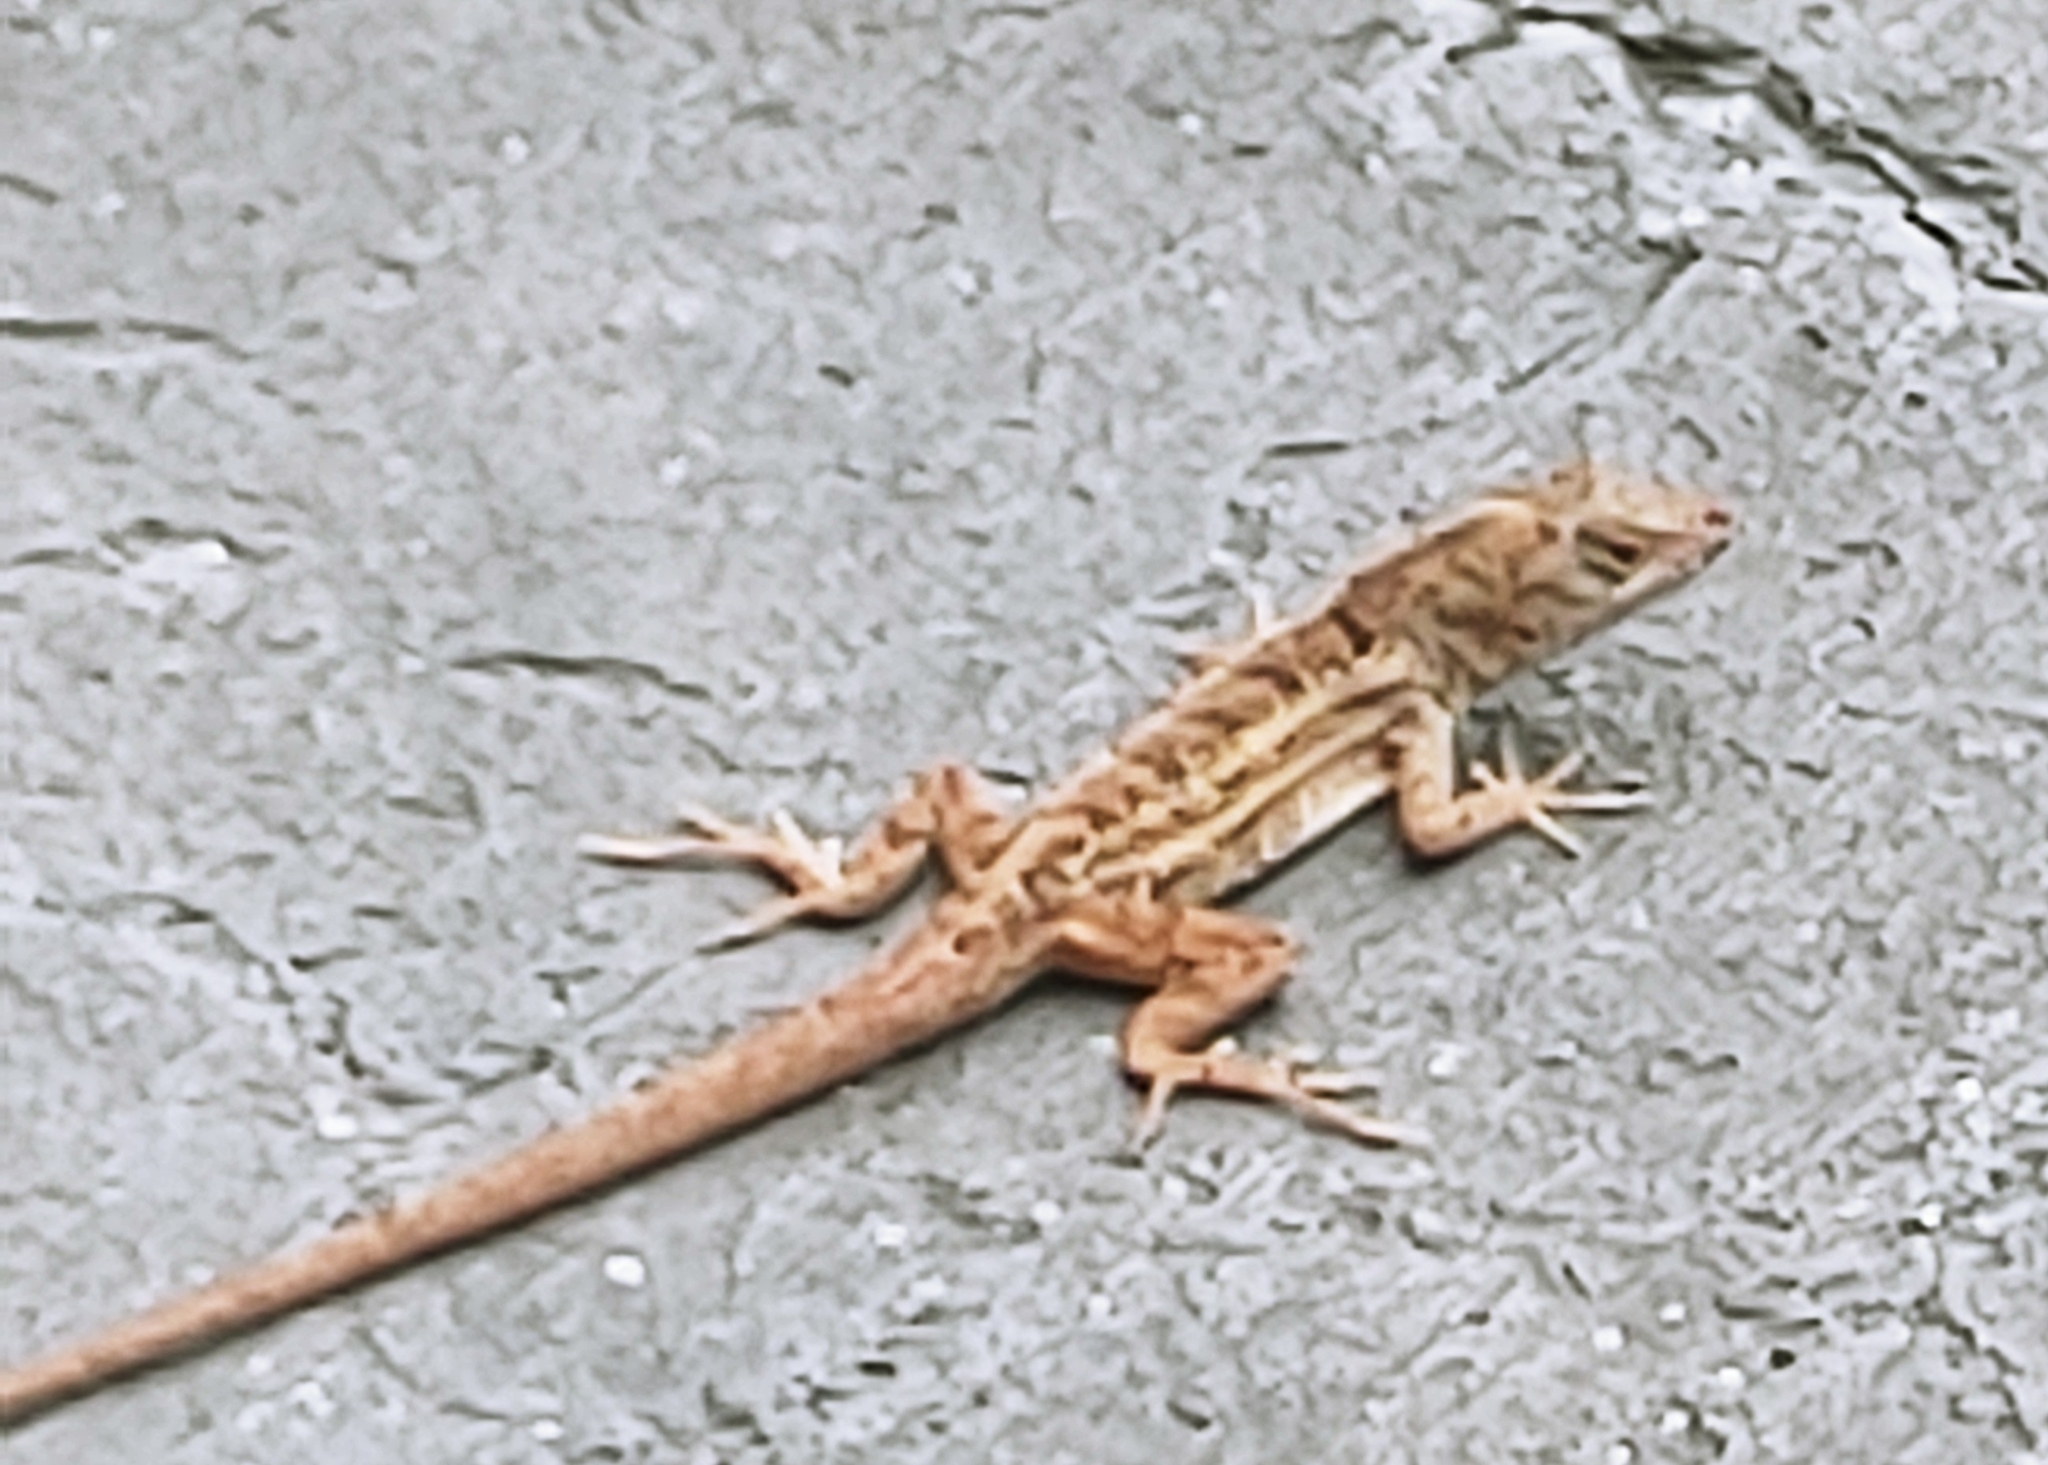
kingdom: Animalia
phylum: Chordata
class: Squamata
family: Dactyloidae
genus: Anolis
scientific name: Anolis sagrei
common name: Brown anole
